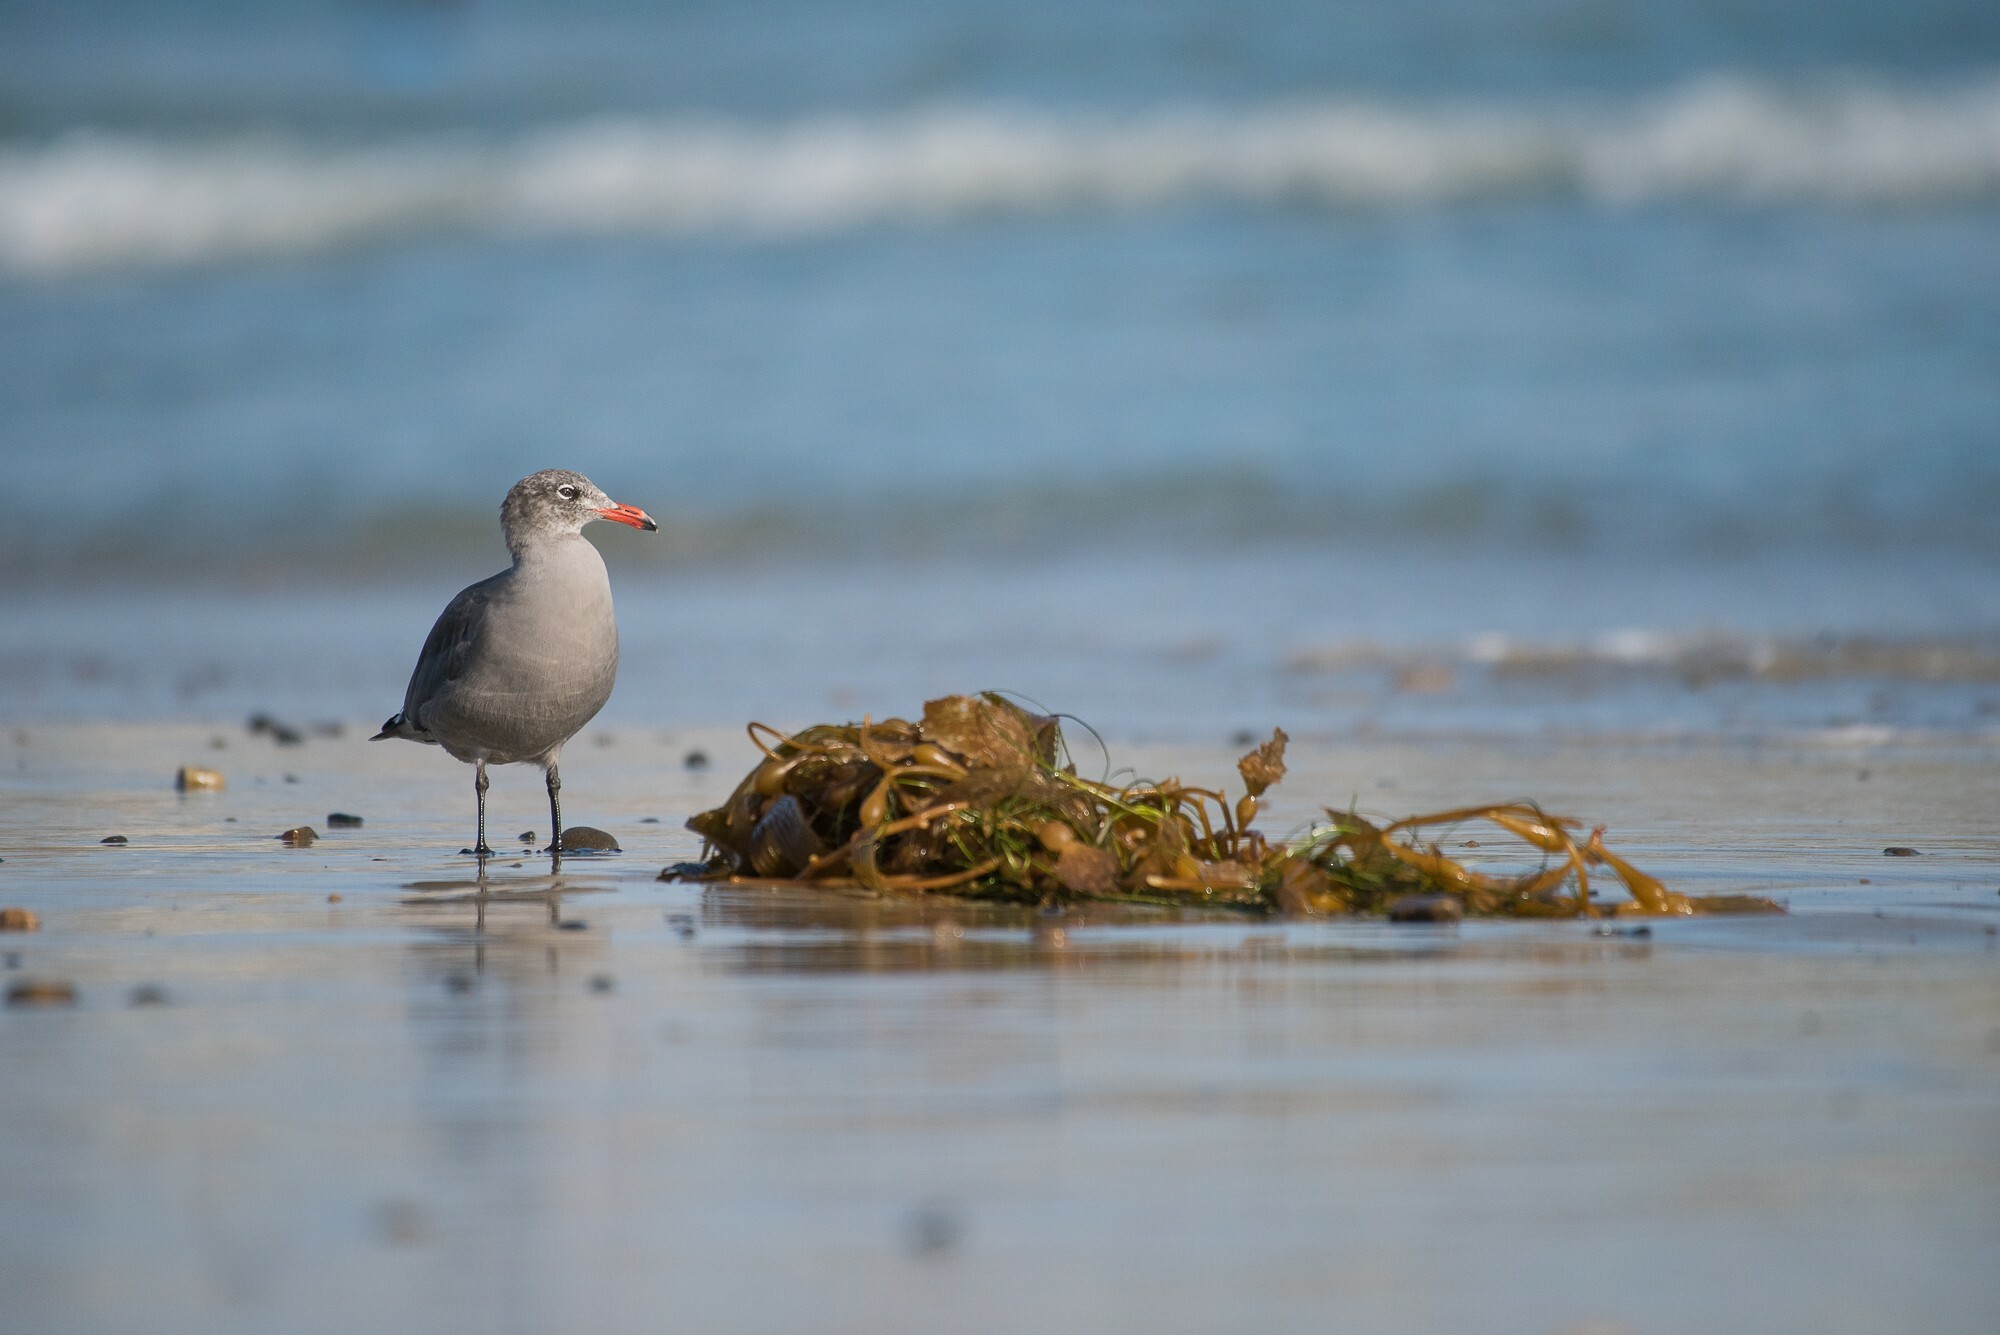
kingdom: Animalia
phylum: Chordata
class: Aves
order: Charadriiformes
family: Laridae
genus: Larus
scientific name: Larus heermanni
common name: Heermann's gull
